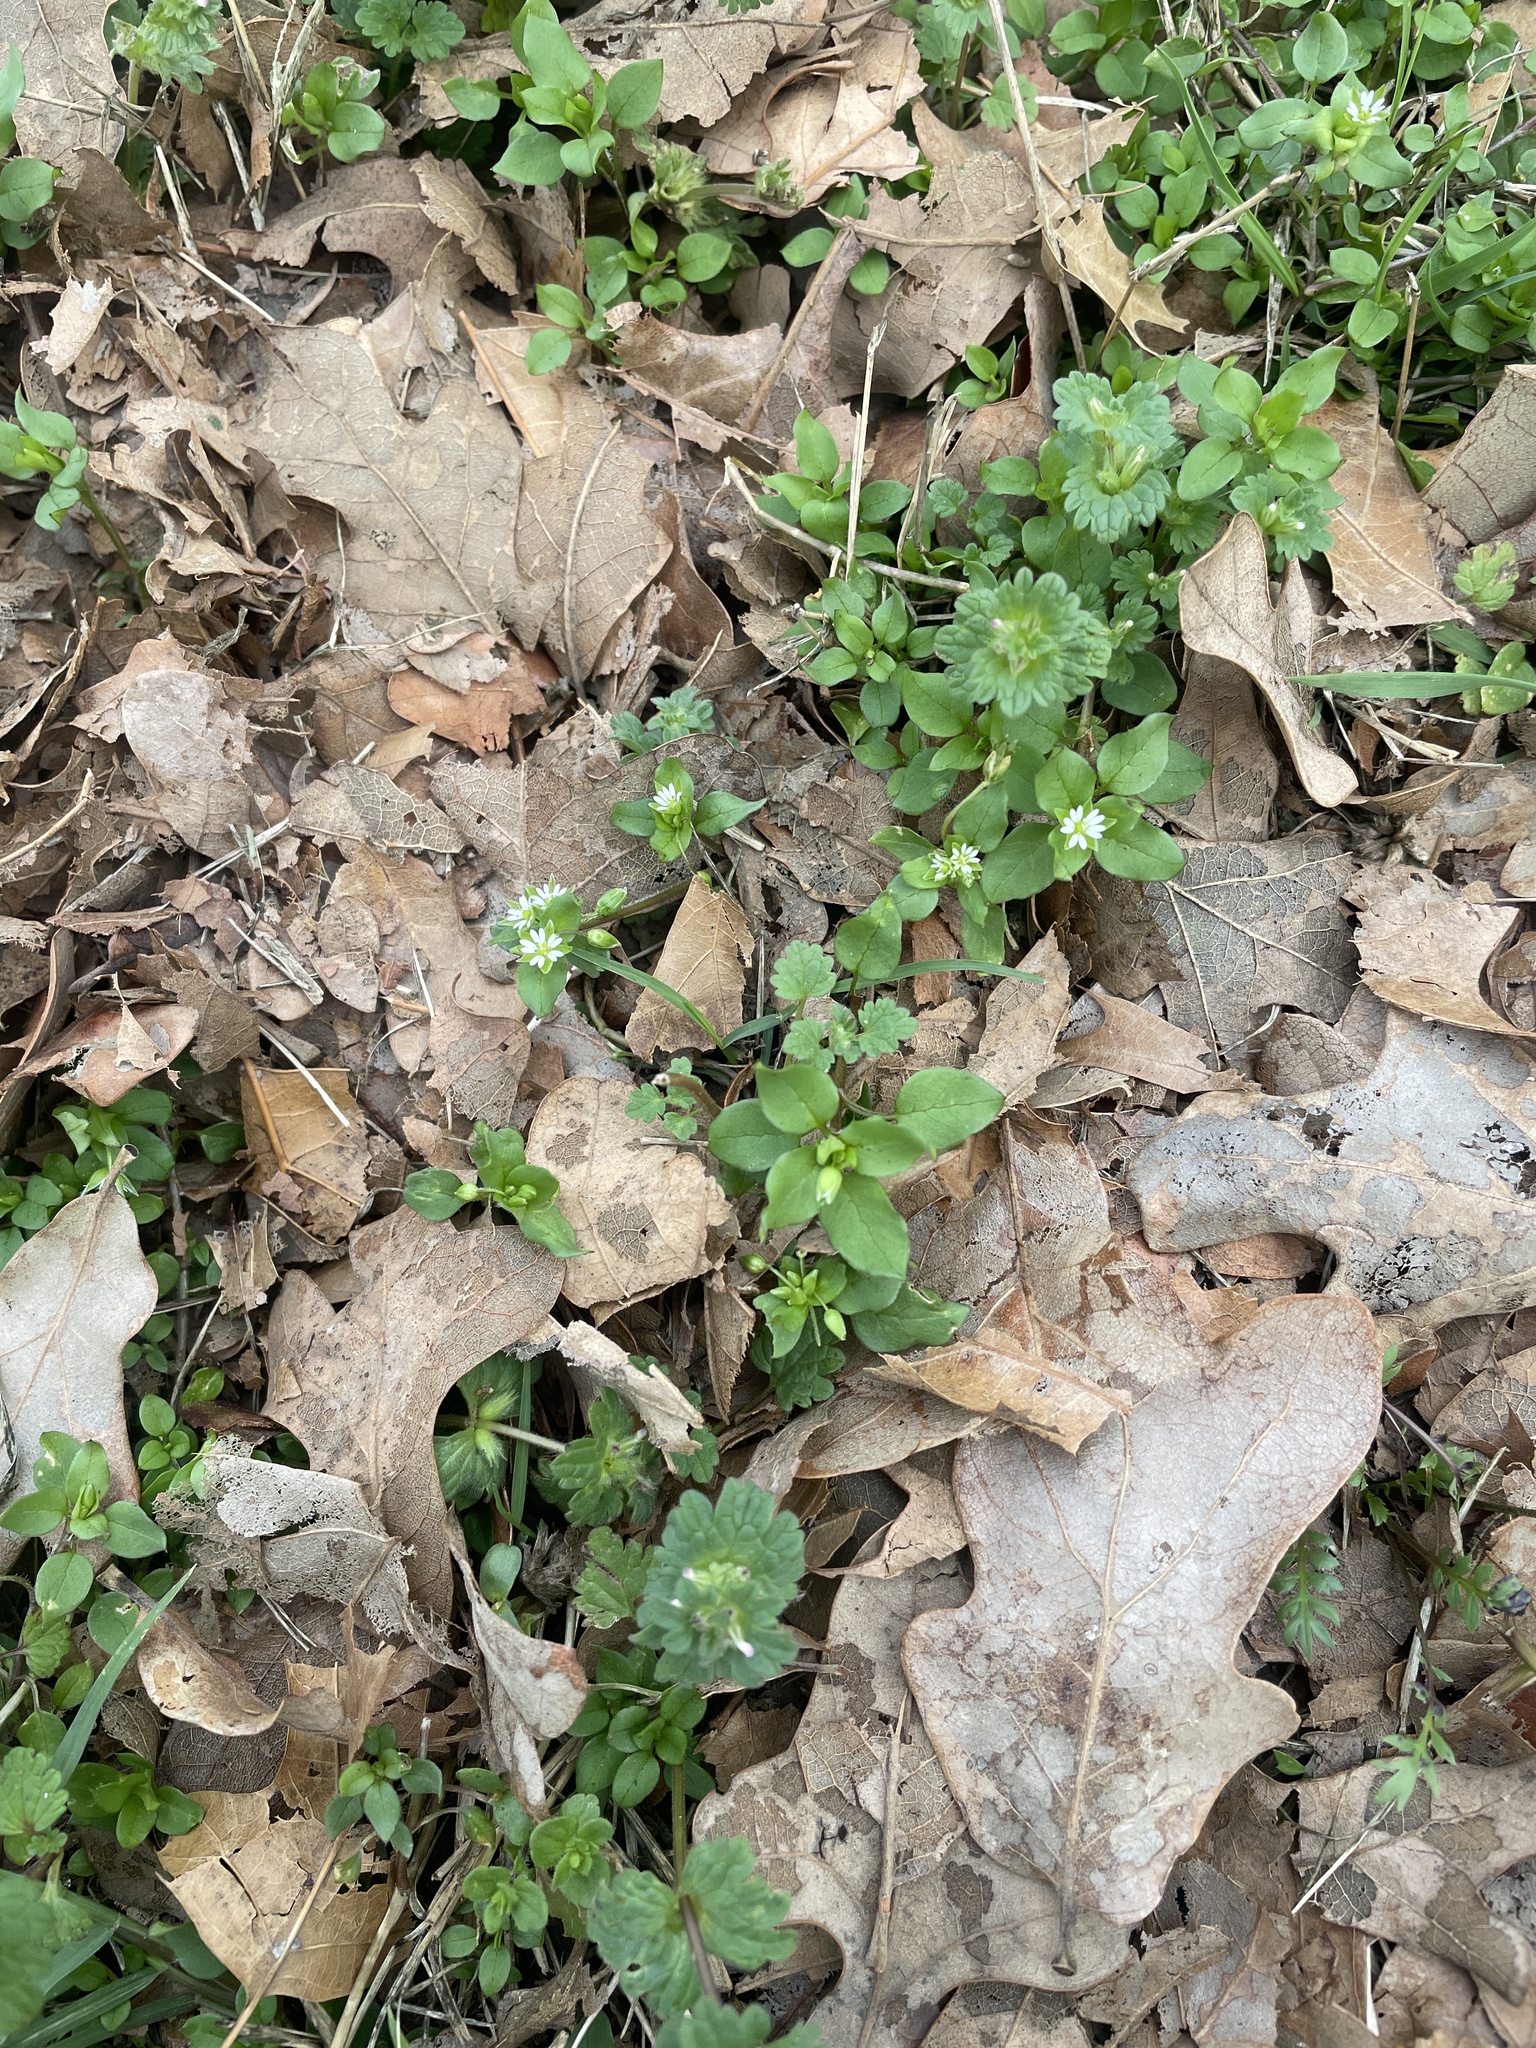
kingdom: Plantae
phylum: Tracheophyta
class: Magnoliopsida
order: Caryophyllales
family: Caryophyllaceae
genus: Stellaria
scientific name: Stellaria media
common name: Common chickweed
